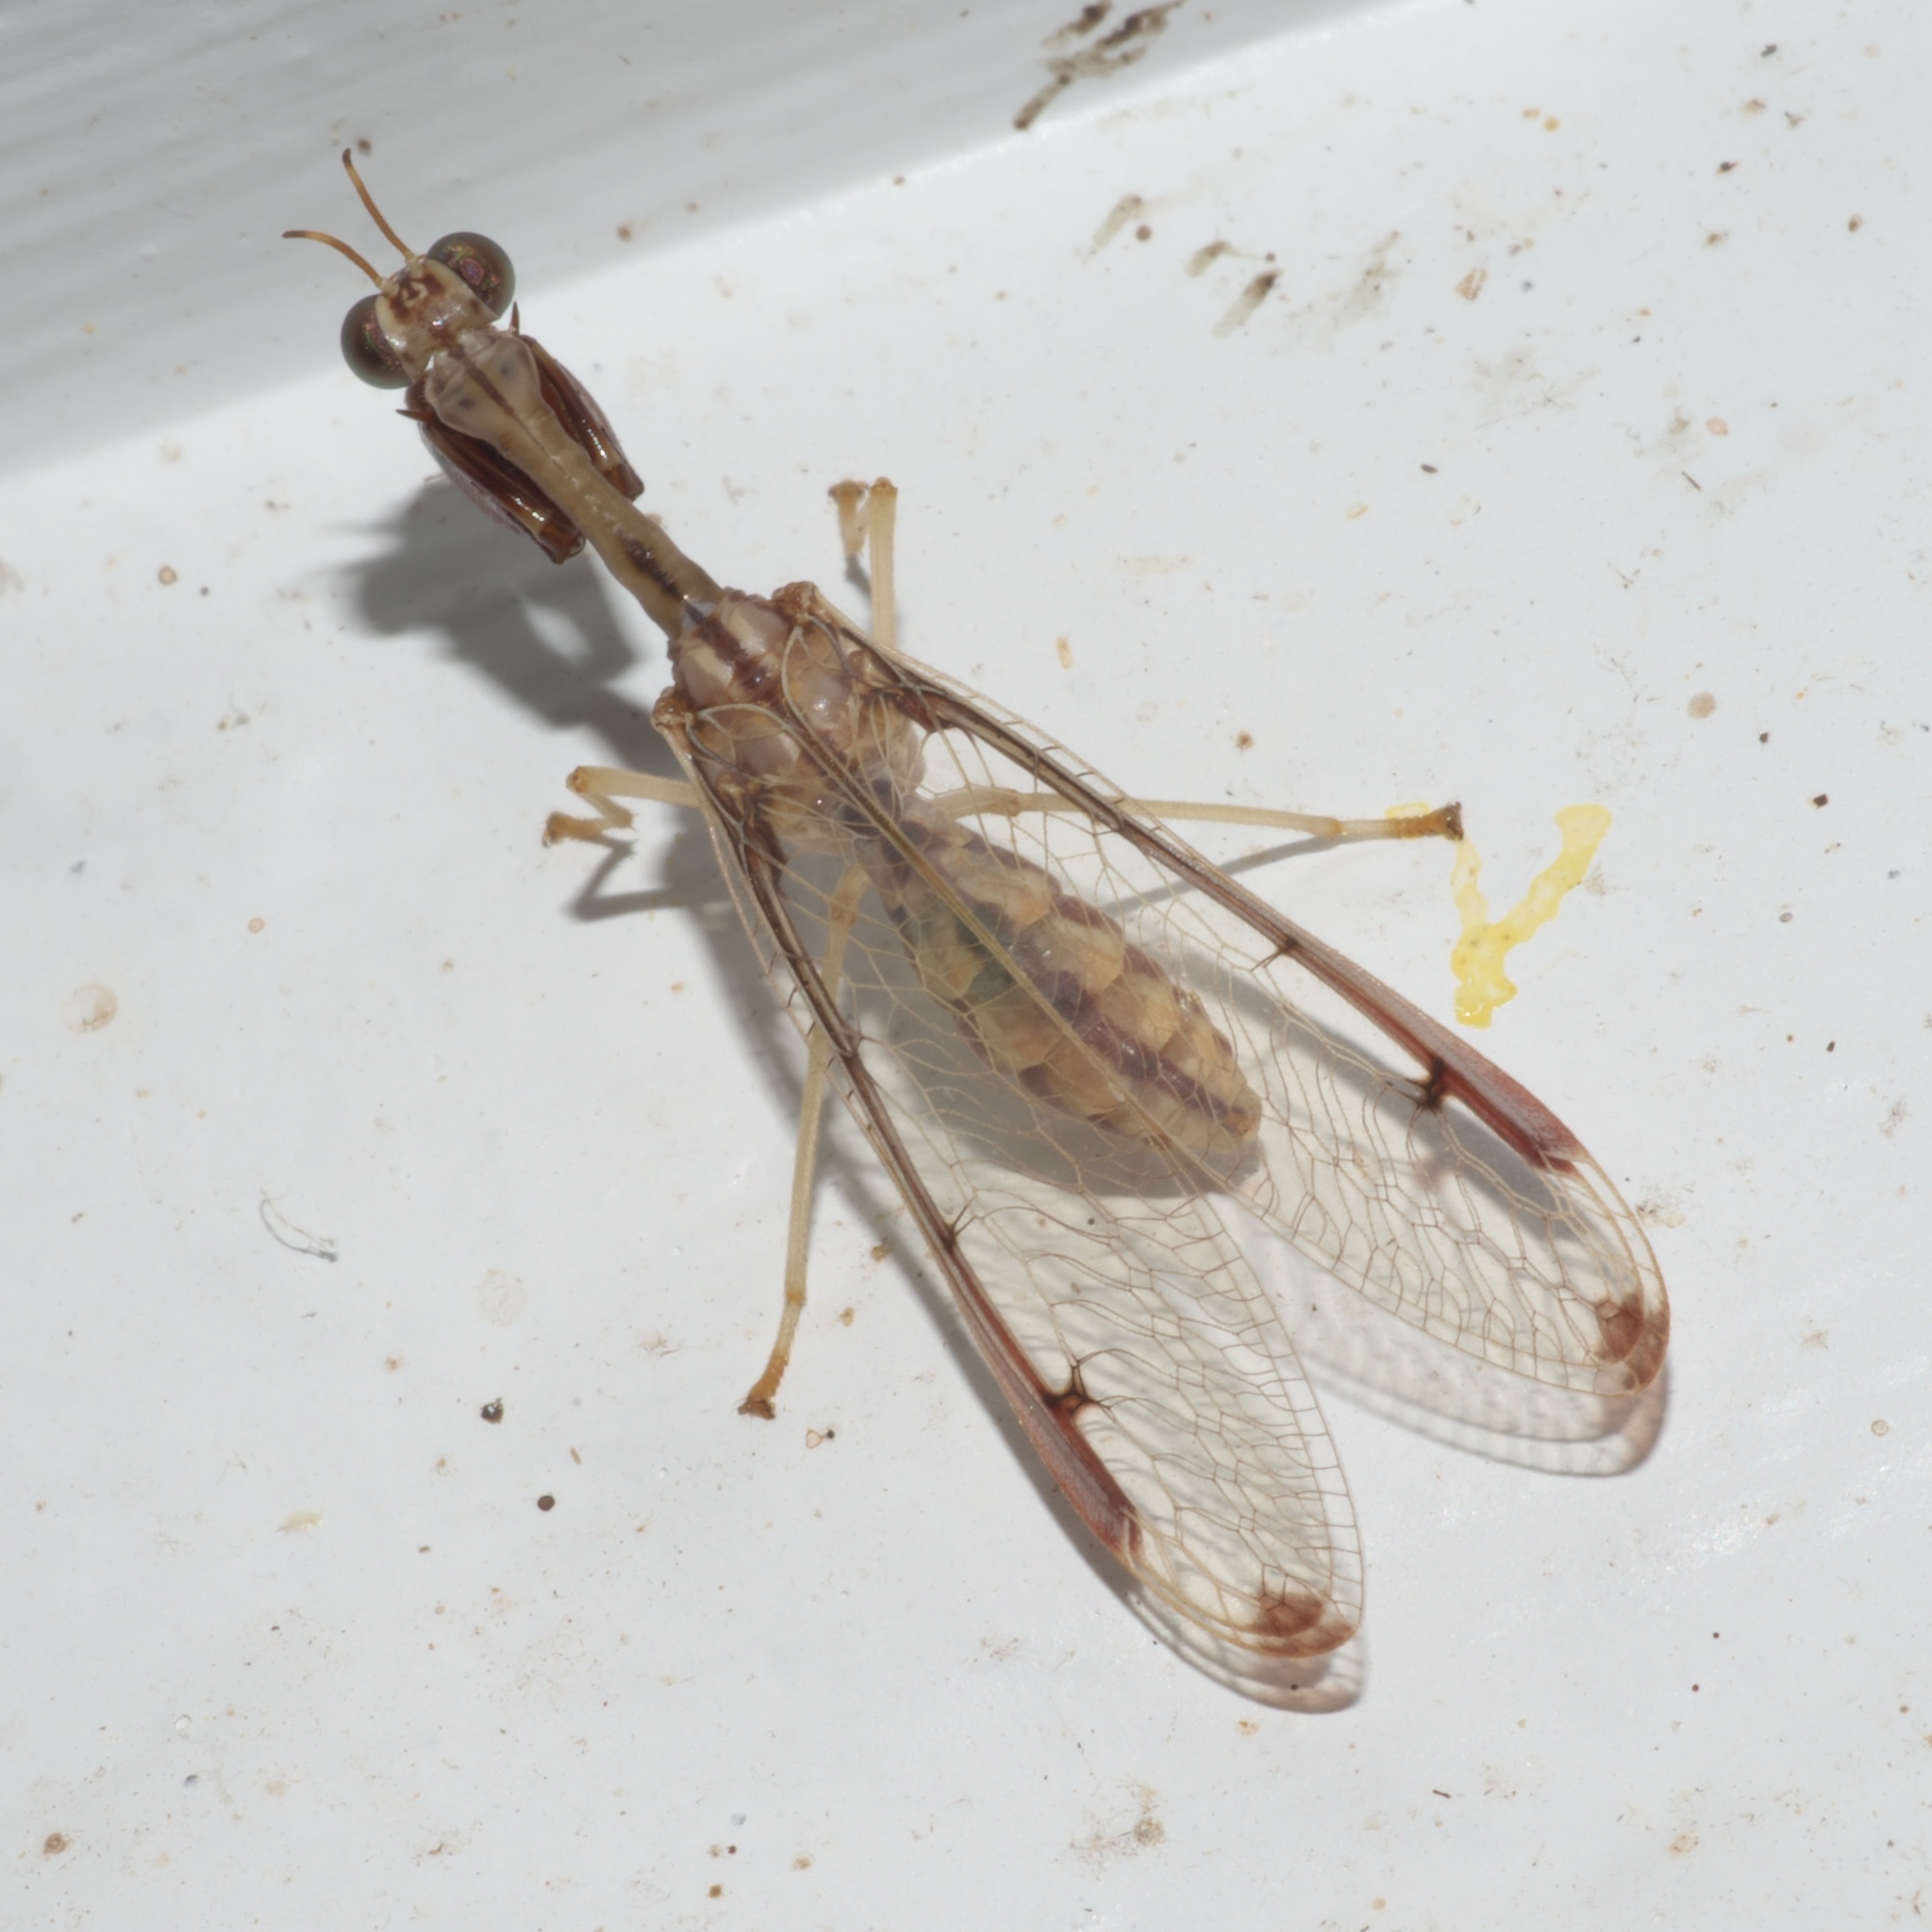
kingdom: Animalia
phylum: Arthropoda
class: Insecta
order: Neuroptera
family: Mantispidae
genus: Dicromantispa
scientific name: Dicromantispa interrupta
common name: Four-spotted mantidfly
